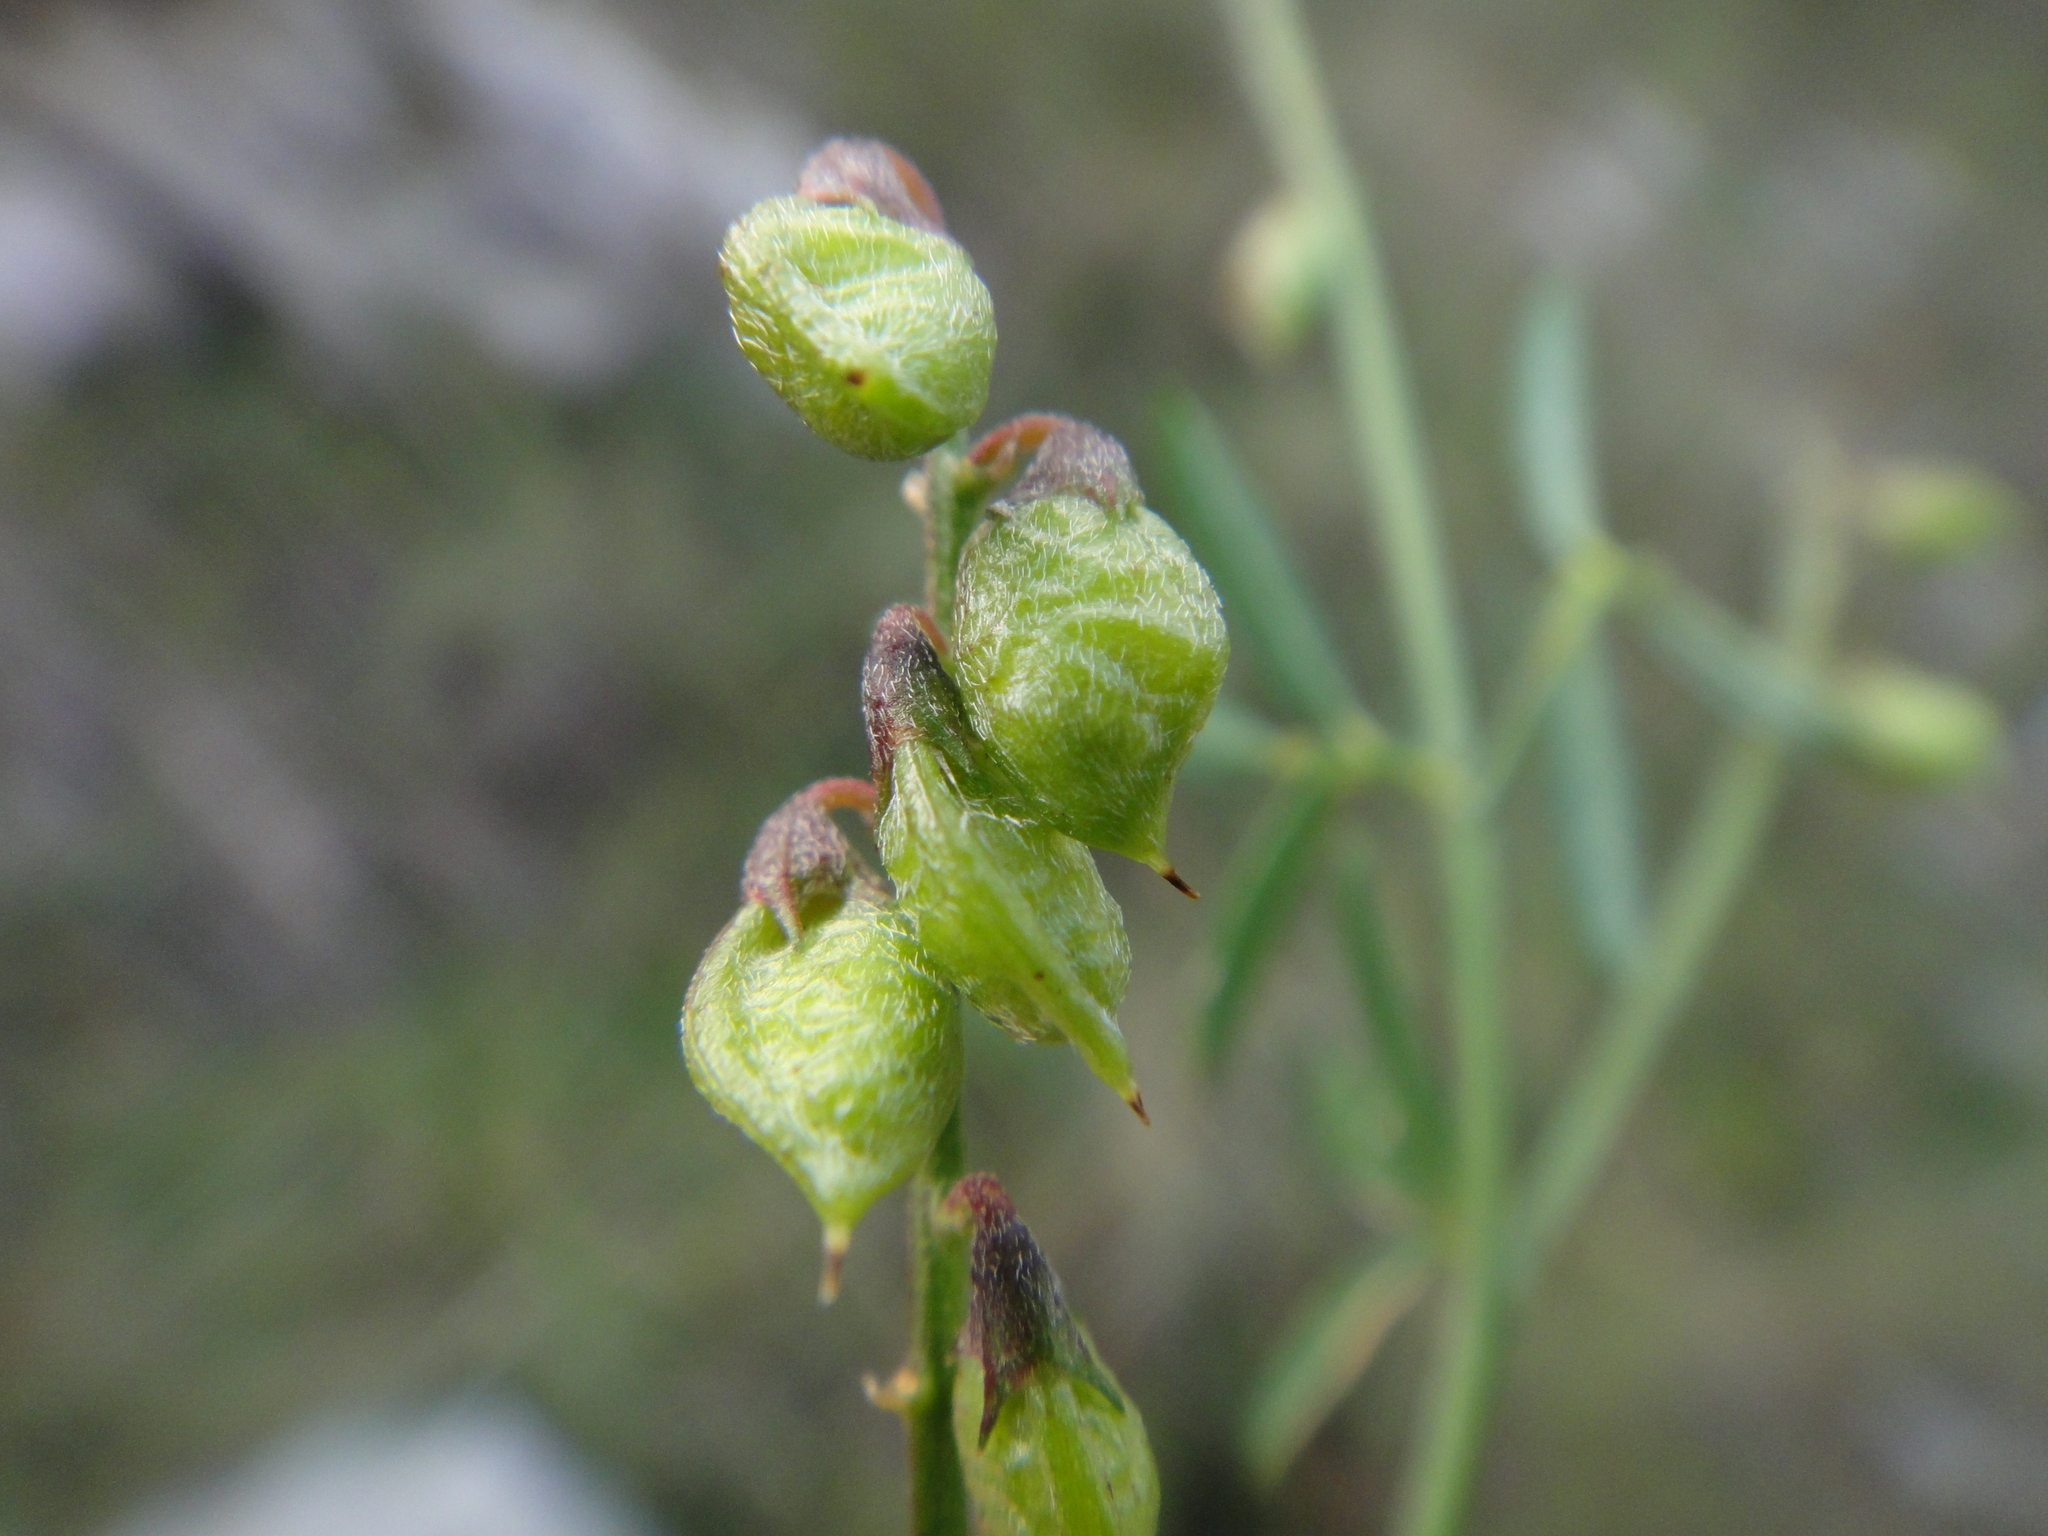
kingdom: Plantae
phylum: Tracheophyta
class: Magnoliopsida
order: Fabales
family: Fabaceae
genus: Melilotus
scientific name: Melilotus altissimus
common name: Tall melilot
